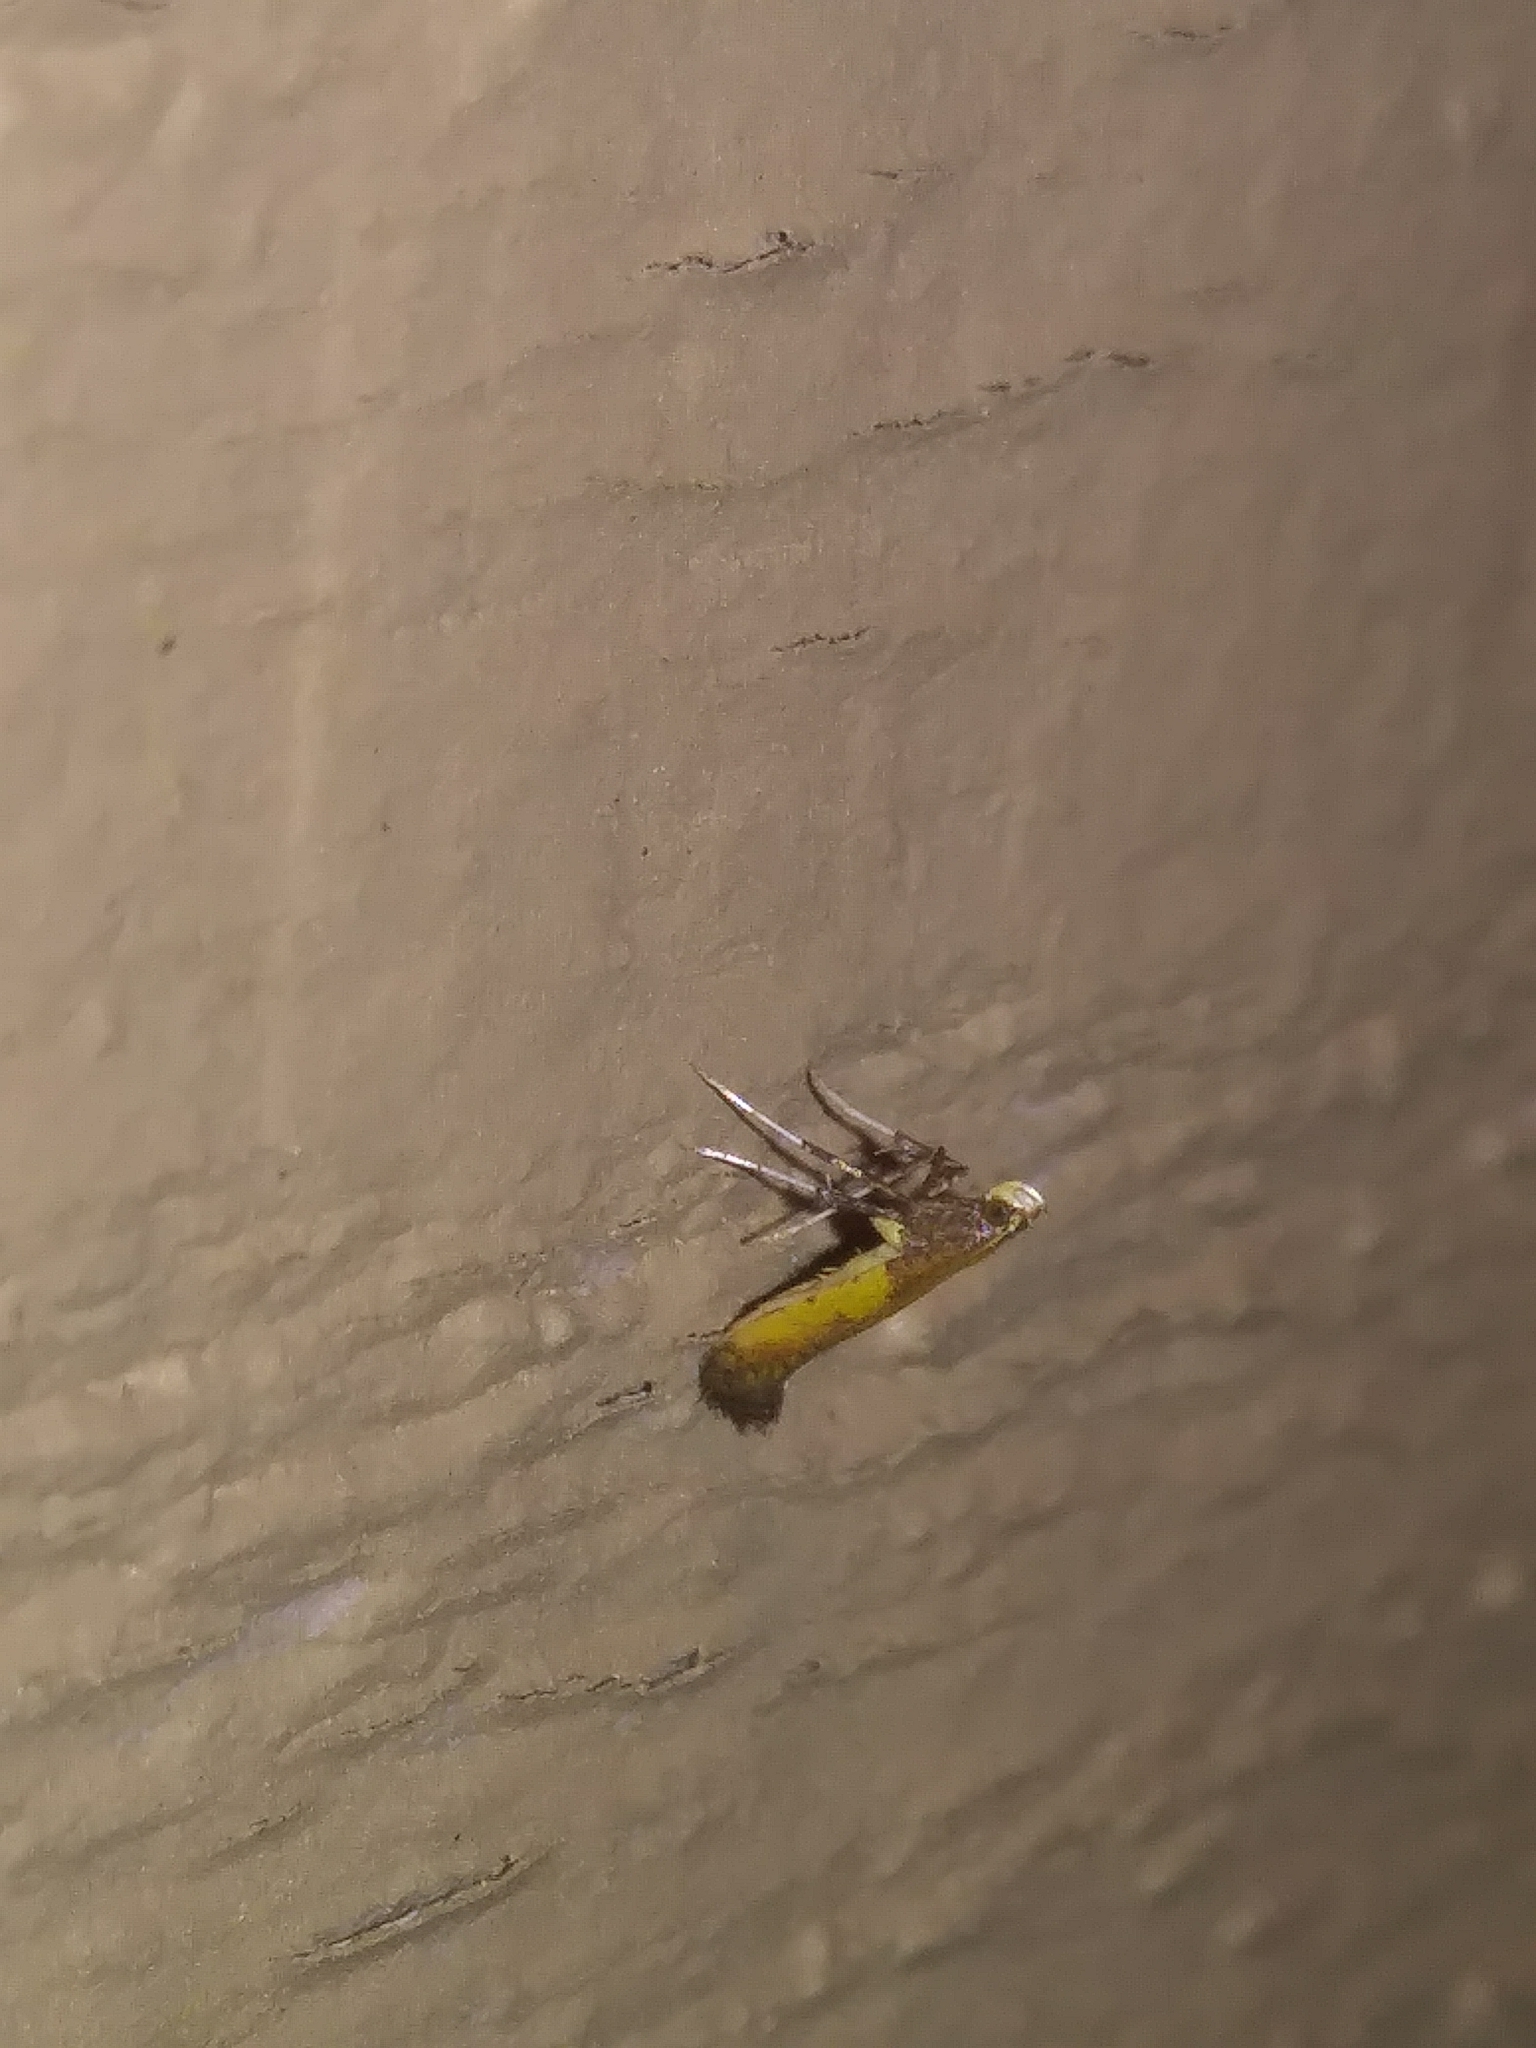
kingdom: Animalia
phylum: Arthropoda
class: Insecta
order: Lepidoptera
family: Gracillariidae
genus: Caloptilia
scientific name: Caloptilia azaleella
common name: Azalea leafminer
